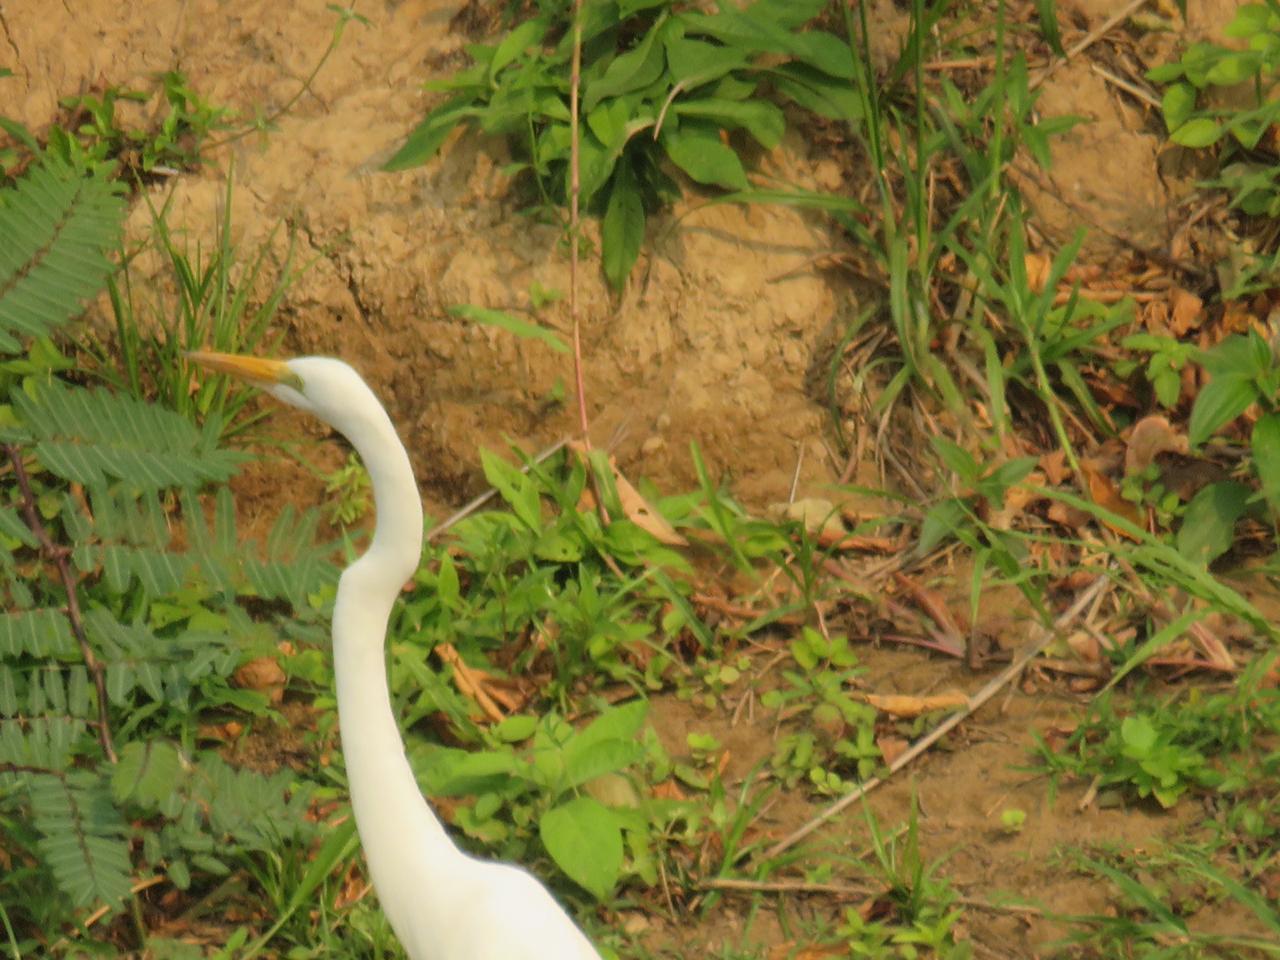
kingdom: Animalia
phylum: Chordata
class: Aves
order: Pelecaniformes
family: Ardeidae
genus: Ardea
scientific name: Ardea alba
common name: Great egret
